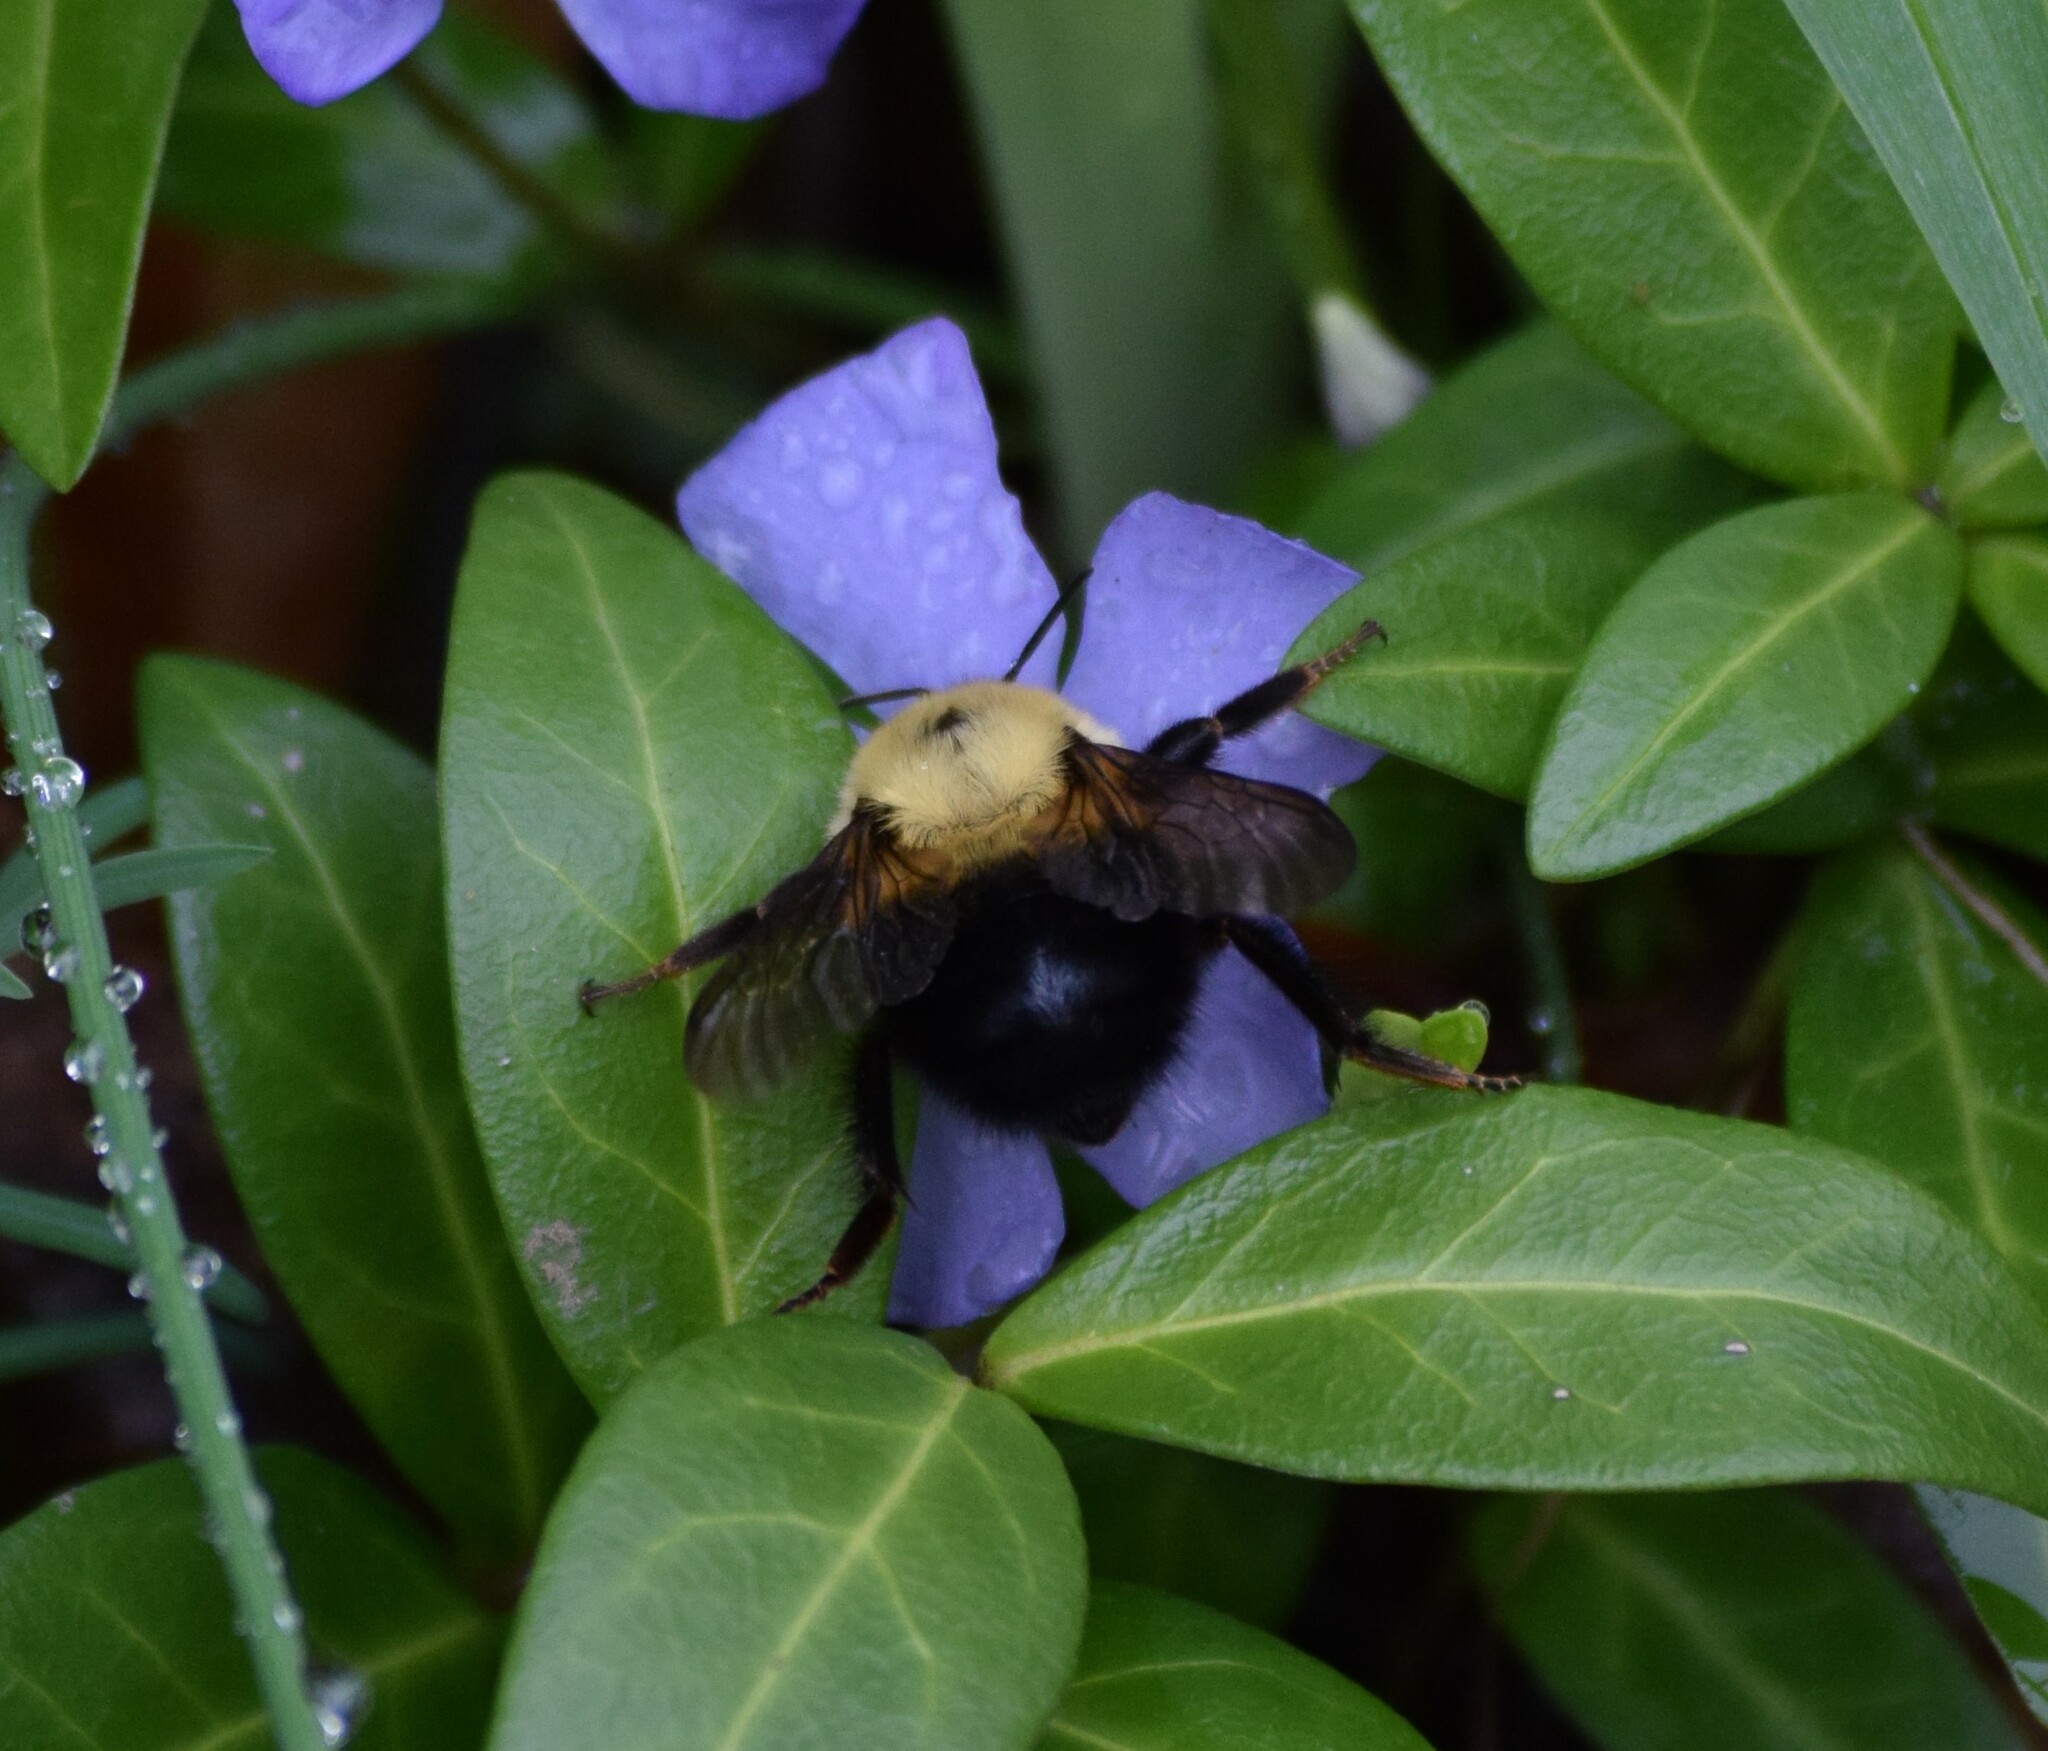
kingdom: Animalia
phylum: Arthropoda
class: Insecta
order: Hymenoptera
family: Apidae
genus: Bombus
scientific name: Bombus bimaculatus
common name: Two-spotted bumble bee
